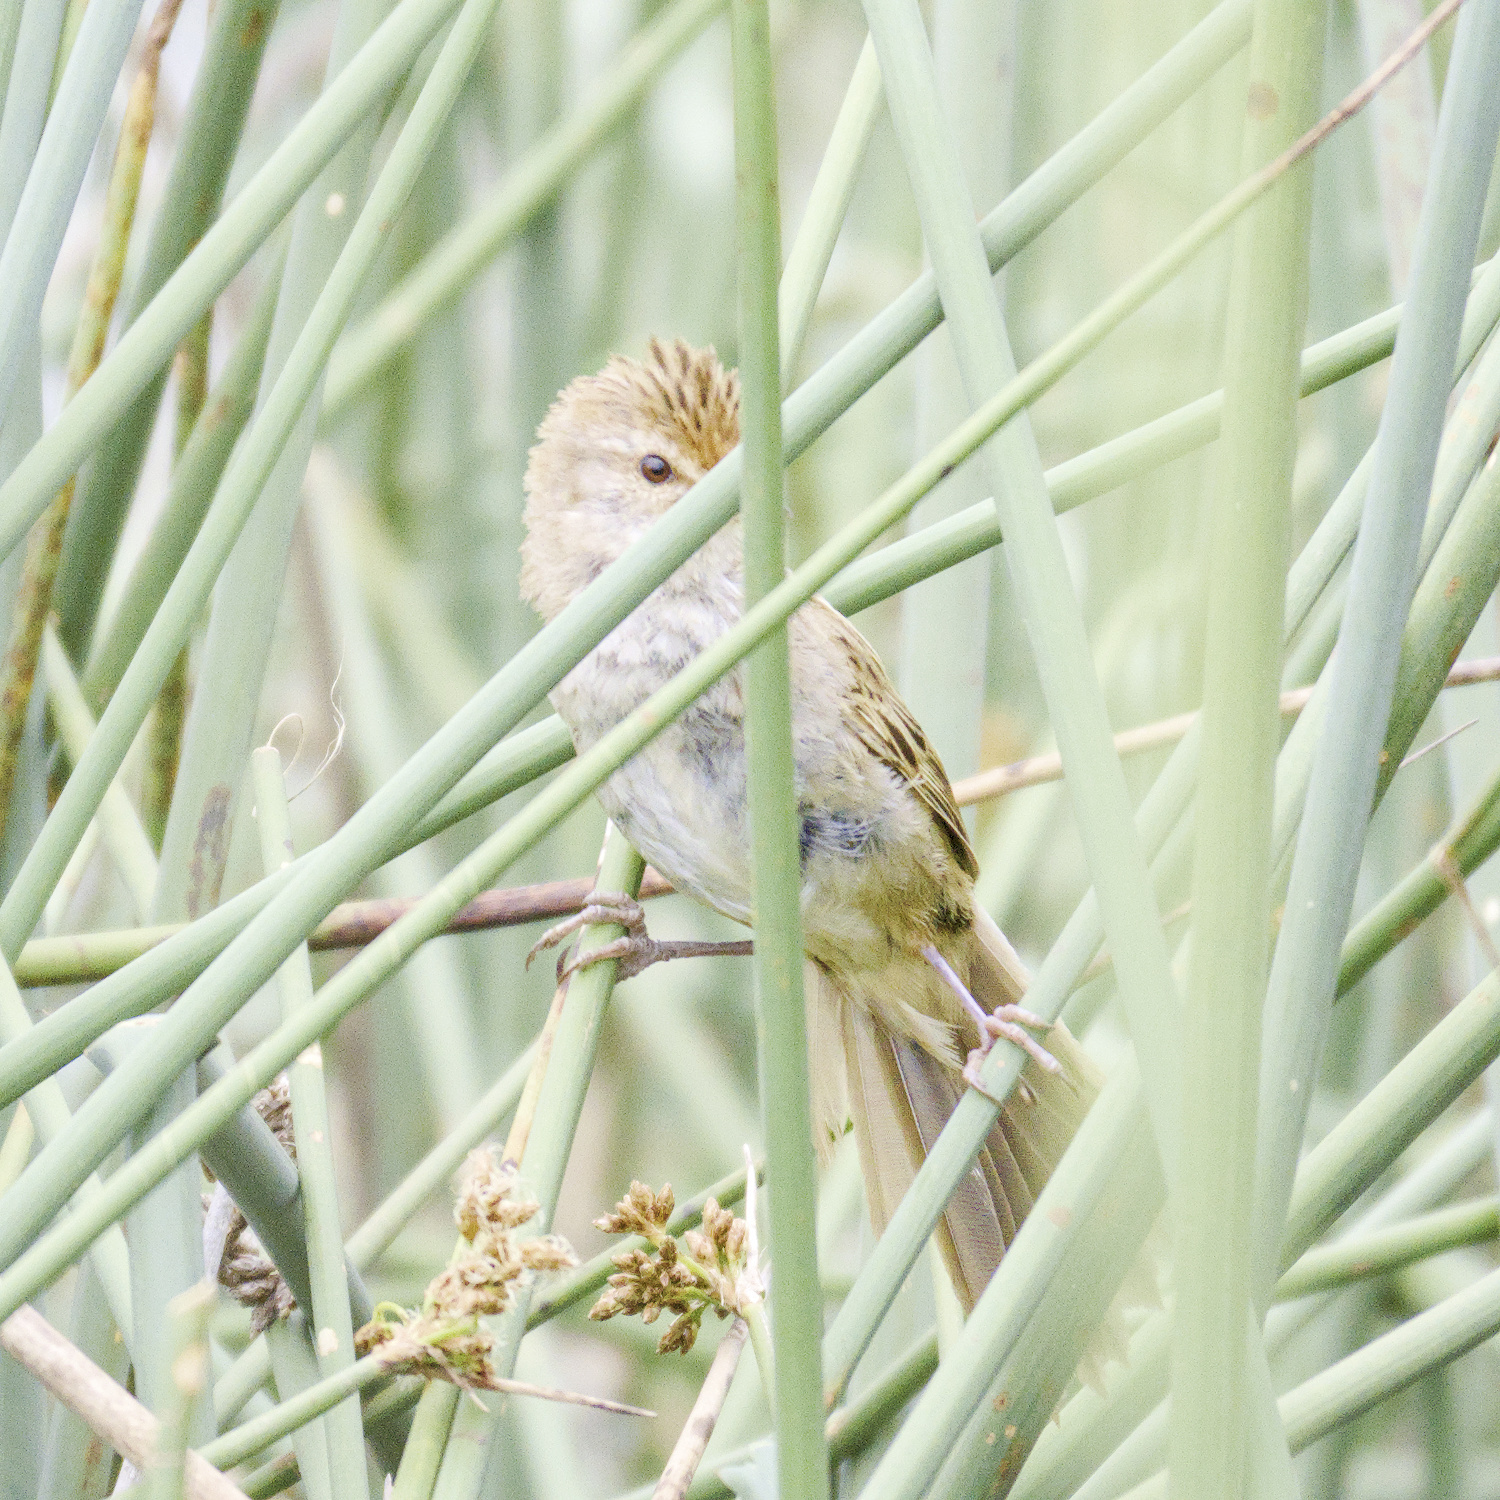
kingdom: Animalia
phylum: Chordata
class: Aves
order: Passeriformes
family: Locustellidae
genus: Megalurus
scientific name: Megalurus gramineus
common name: Little grassbird
